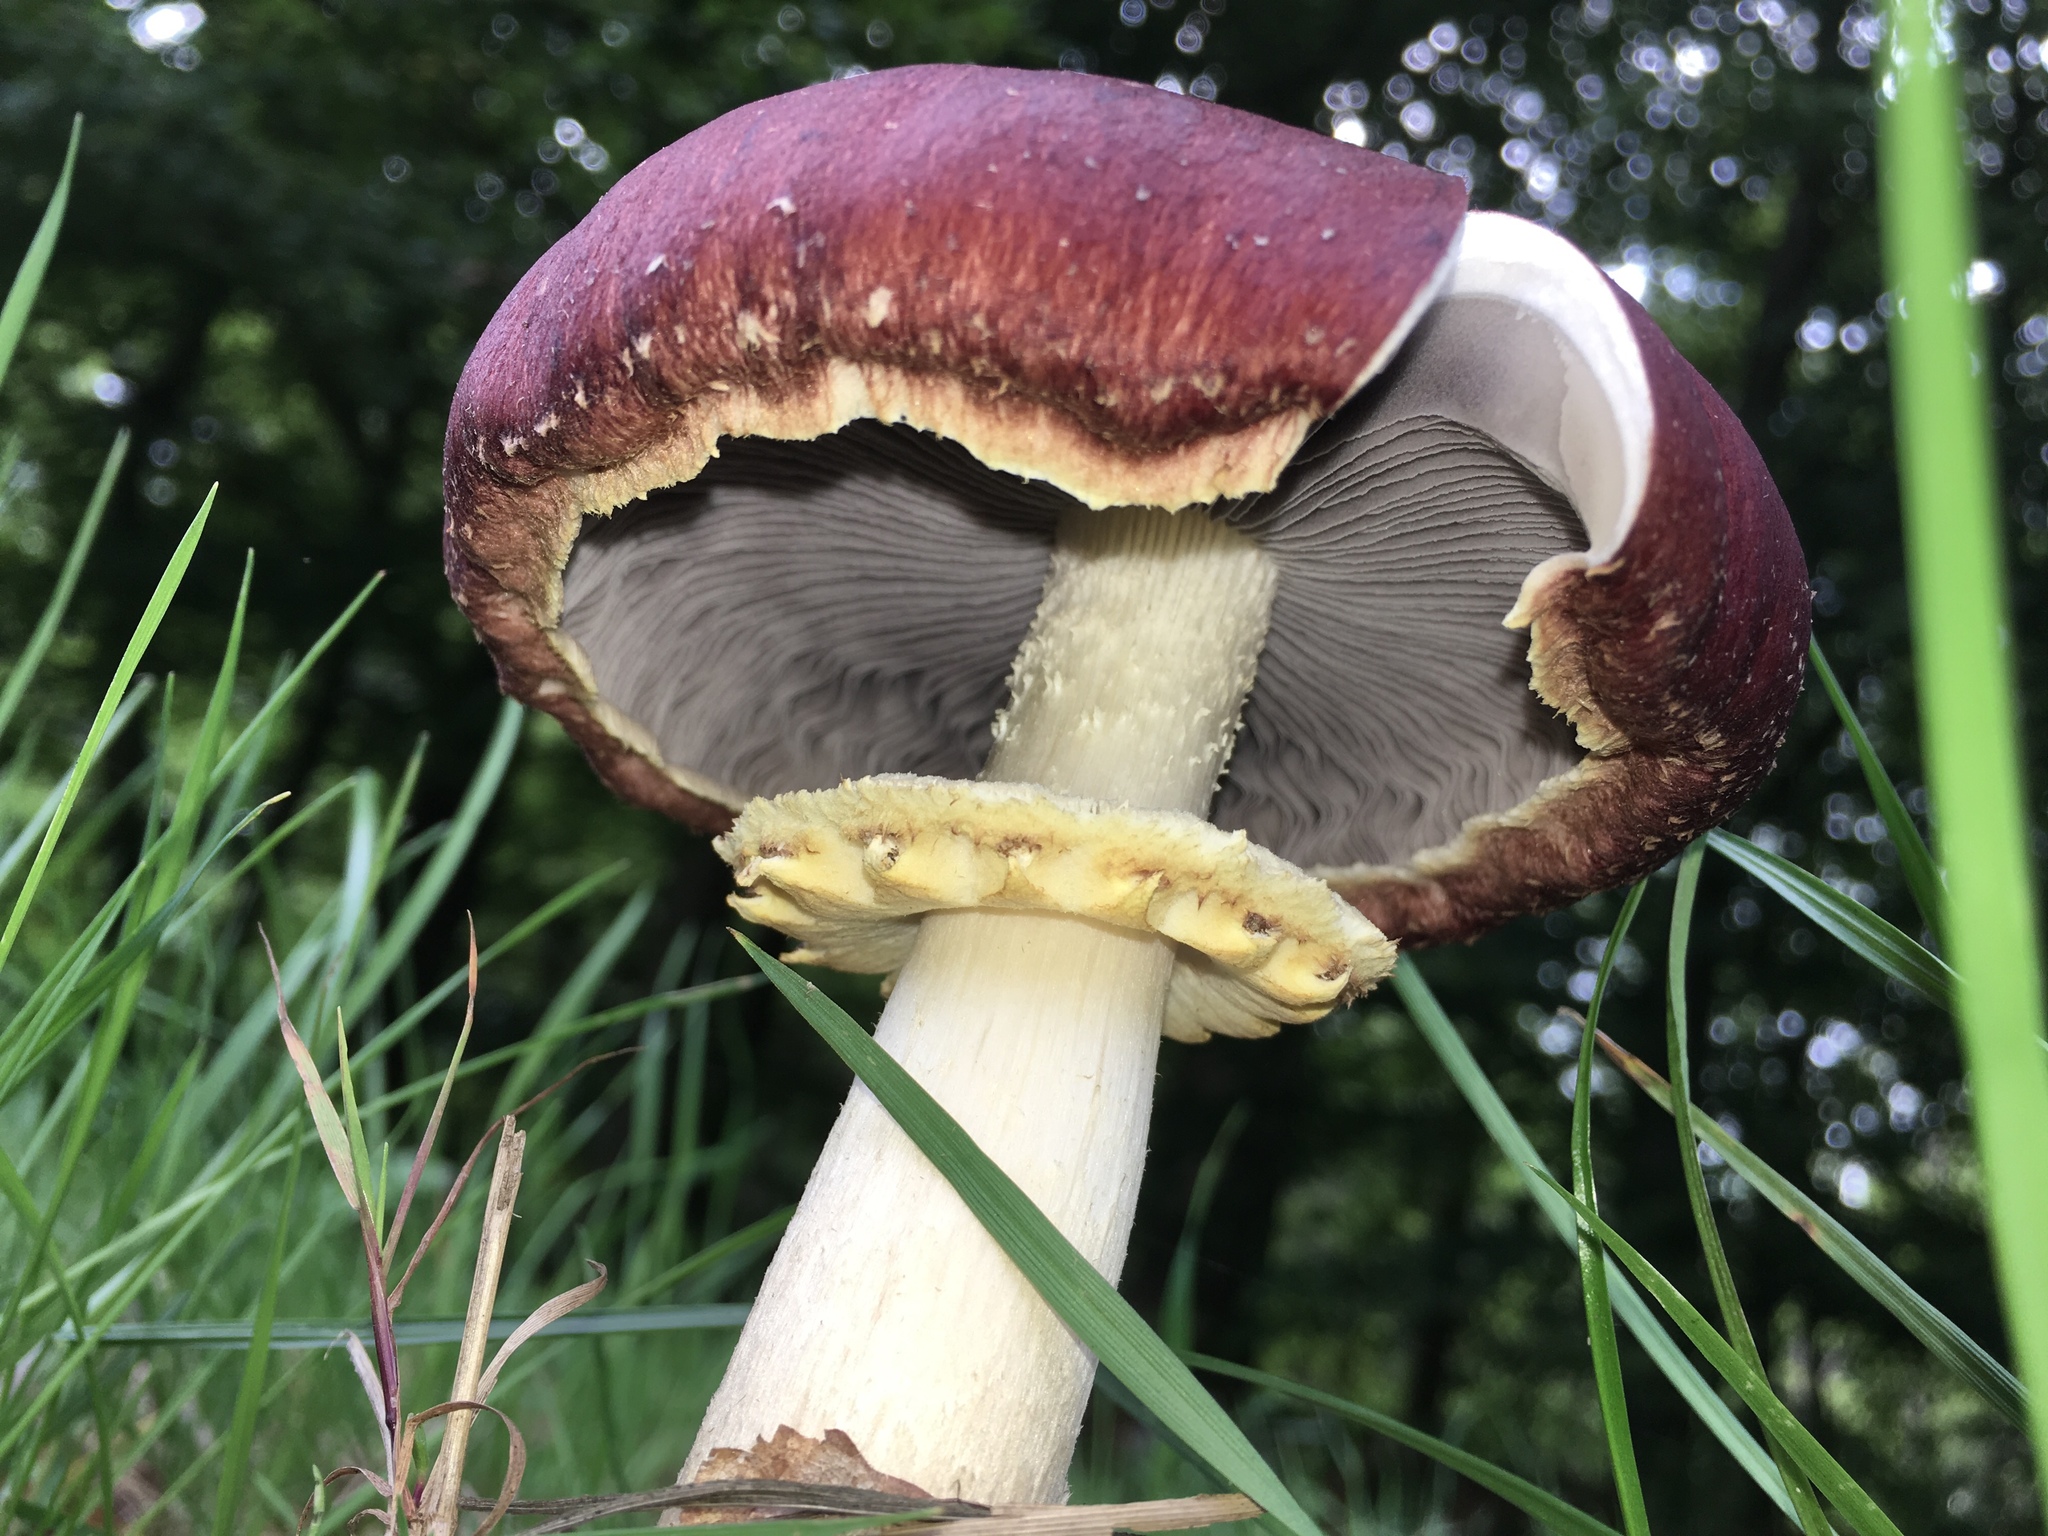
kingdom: Fungi
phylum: Basidiomycota
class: Agaricomycetes
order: Agaricales
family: Strophariaceae
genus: Stropharia
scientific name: Stropharia rugosoannulata
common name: Wine roundhead
